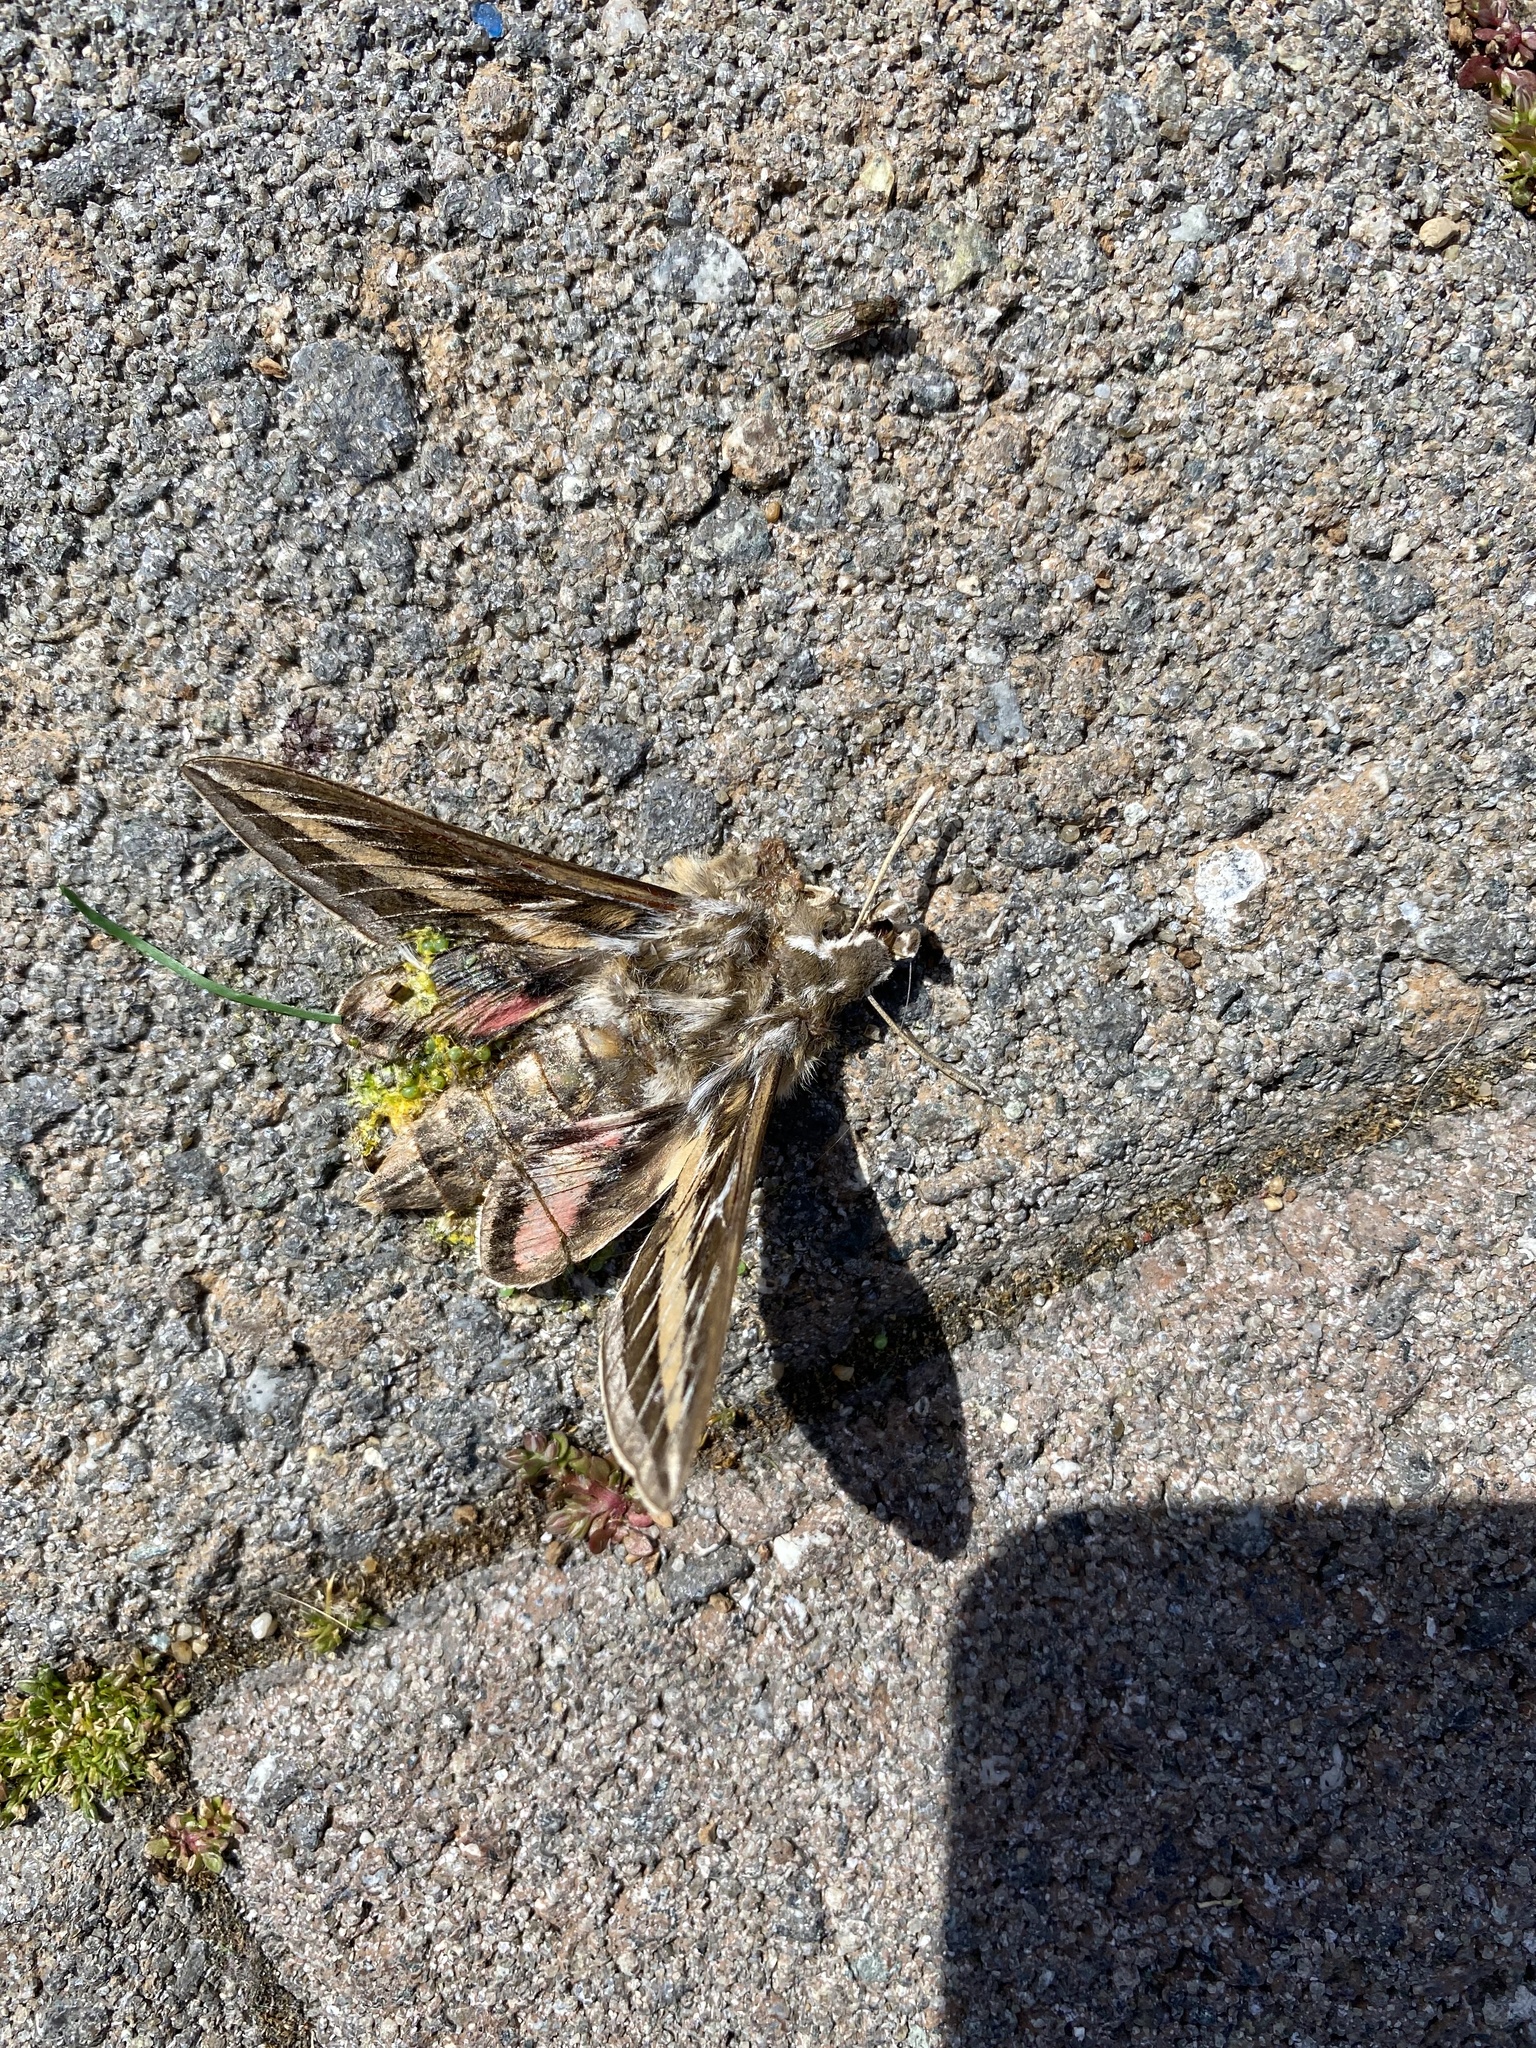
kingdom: Animalia
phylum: Arthropoda
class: Insecta
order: Lepidoptera
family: Sphingidae
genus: Hyles
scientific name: Hyles lineata
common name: White-lined sphinx
